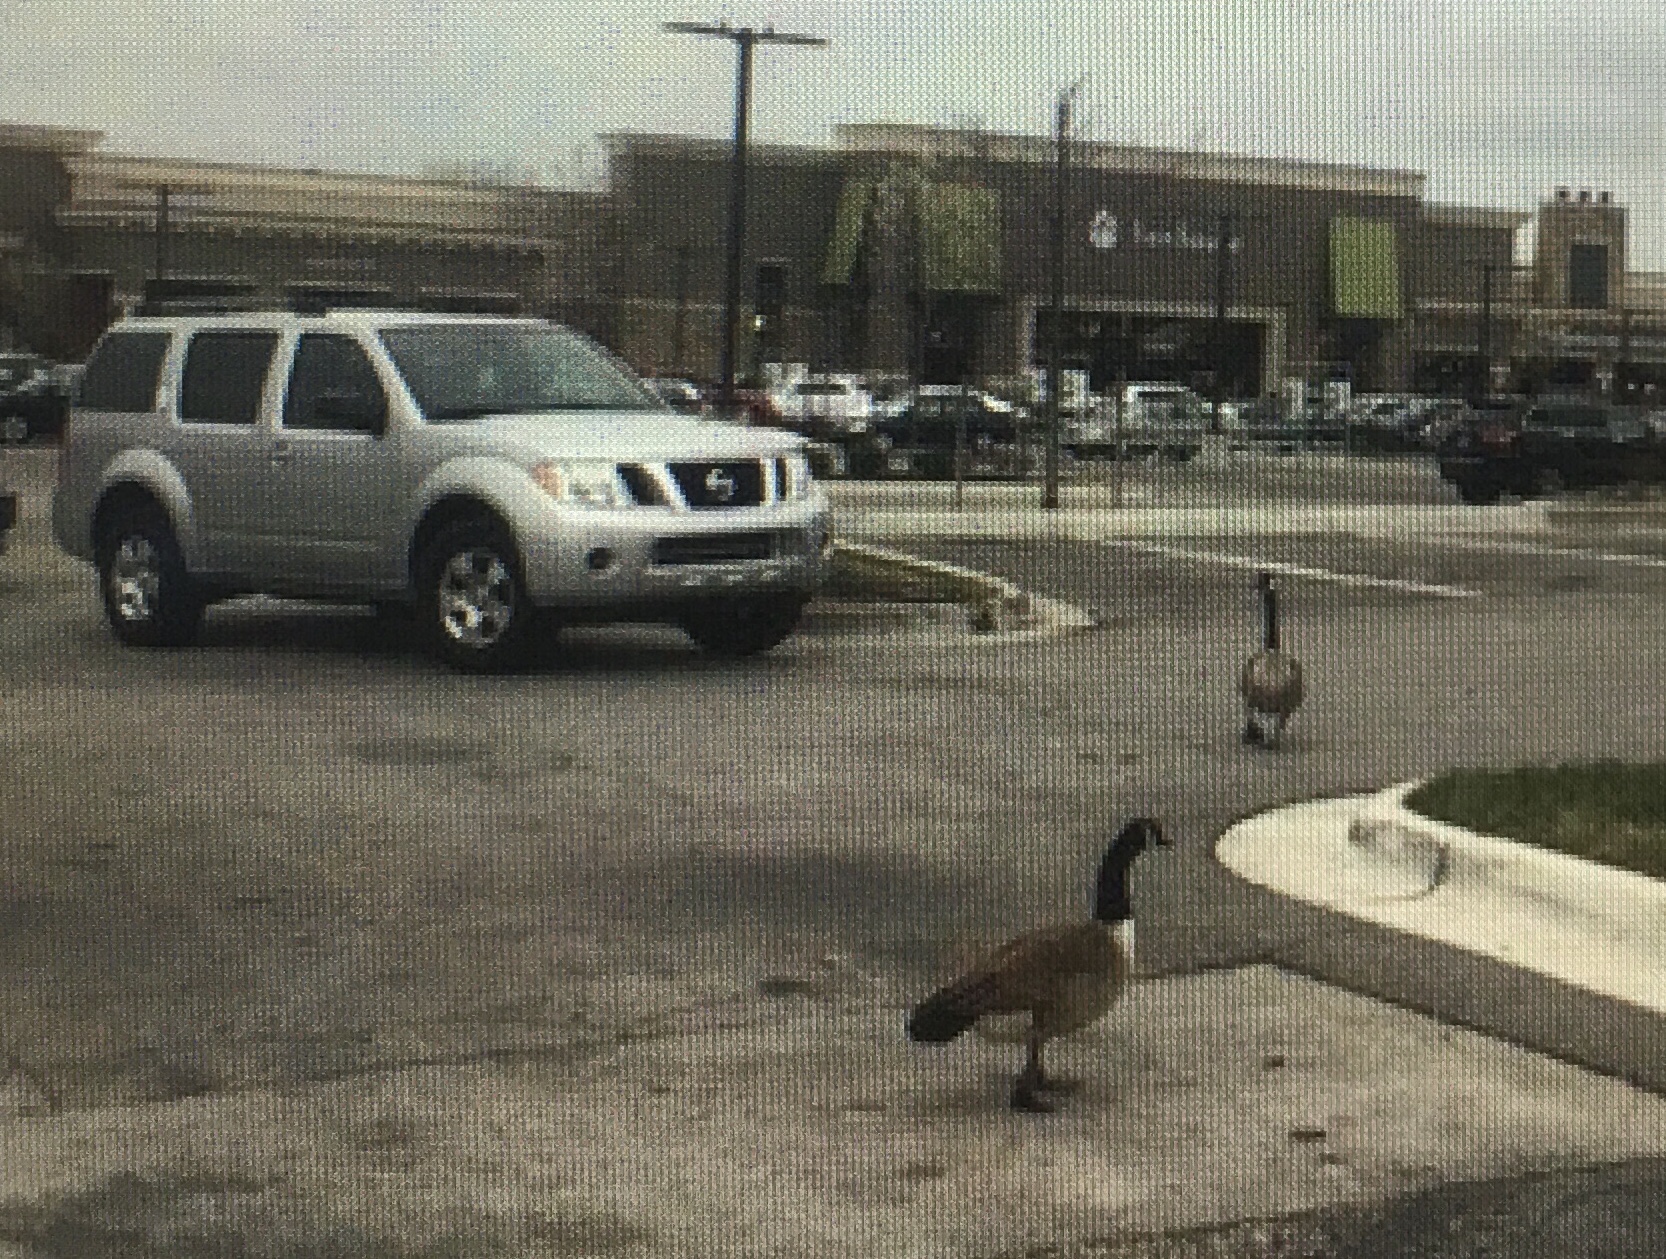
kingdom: Animalia
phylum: Chordata
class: Aves
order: Anseriformes
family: Anatidae
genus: Branta
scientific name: Branta canadensis
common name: Canada goose
